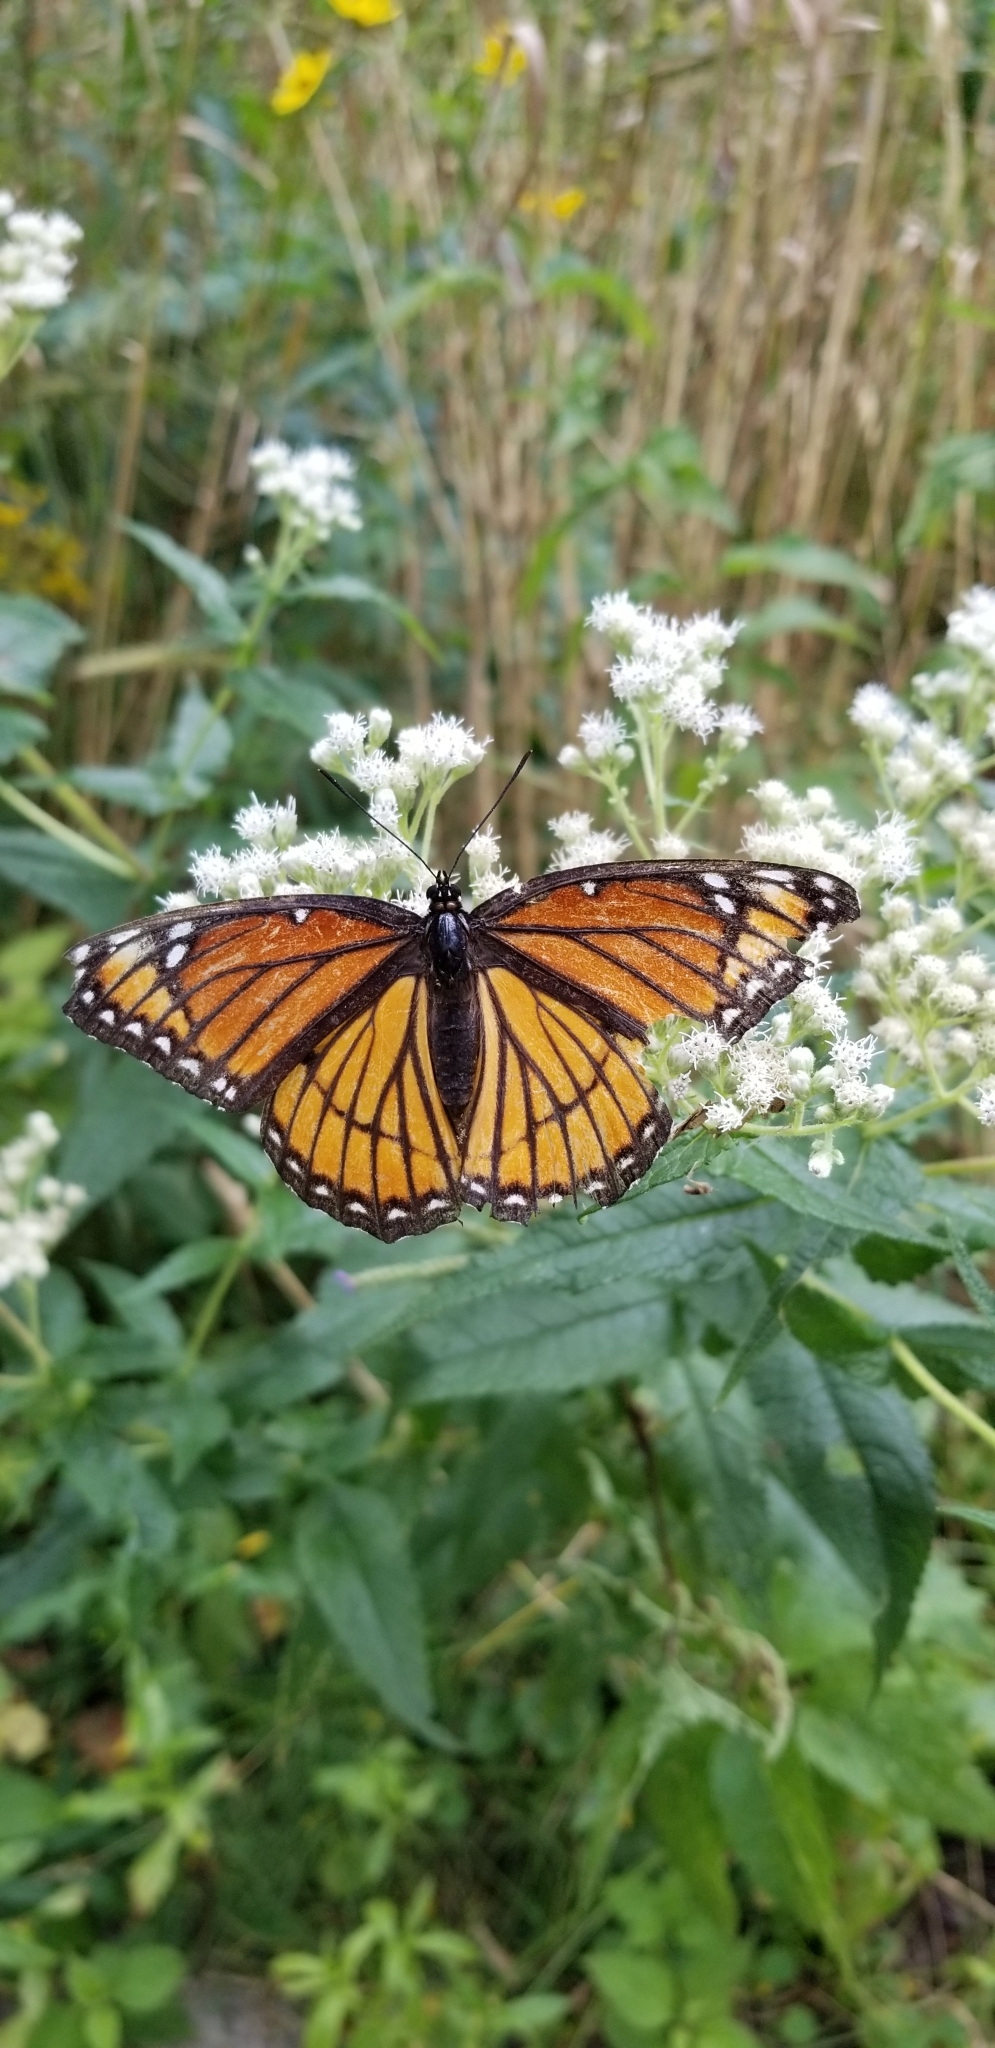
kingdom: Animalia
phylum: Arthropoda
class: Insecta
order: Lepidoptera
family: Nymphalidae
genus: Limenitis
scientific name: Limenitis archippus
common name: Viceroy
